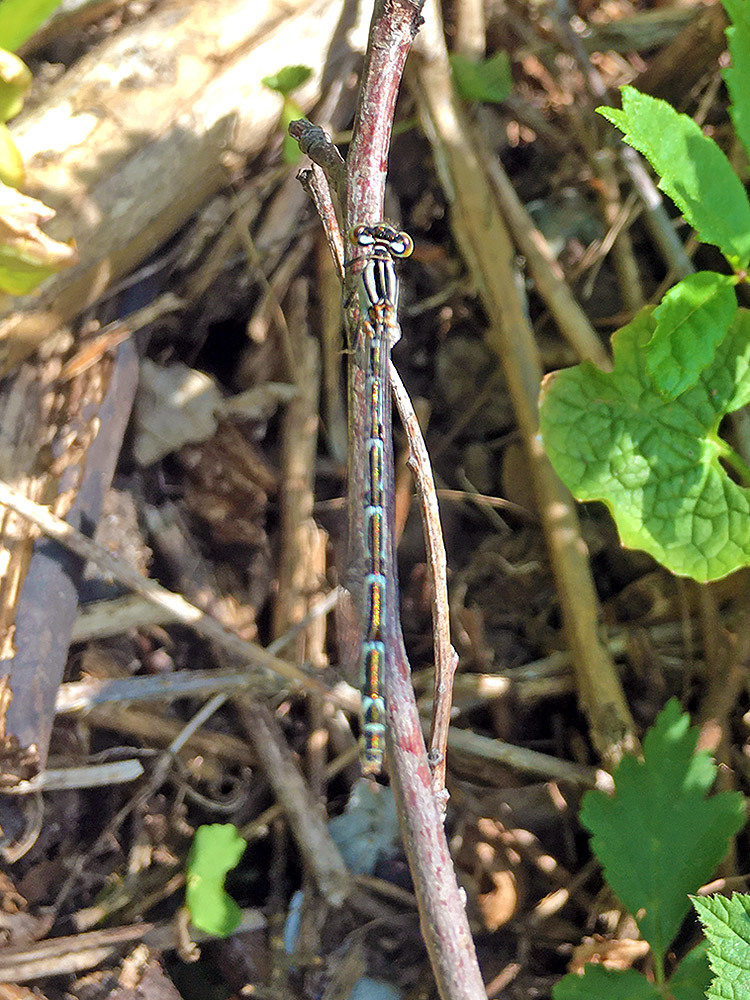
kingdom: Animalia
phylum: Arthropoda
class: Insecta
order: Odonata
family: Coenagrionidae
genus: Enallagma
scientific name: Enallagma cyathigerum
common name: Common blue damselfly
